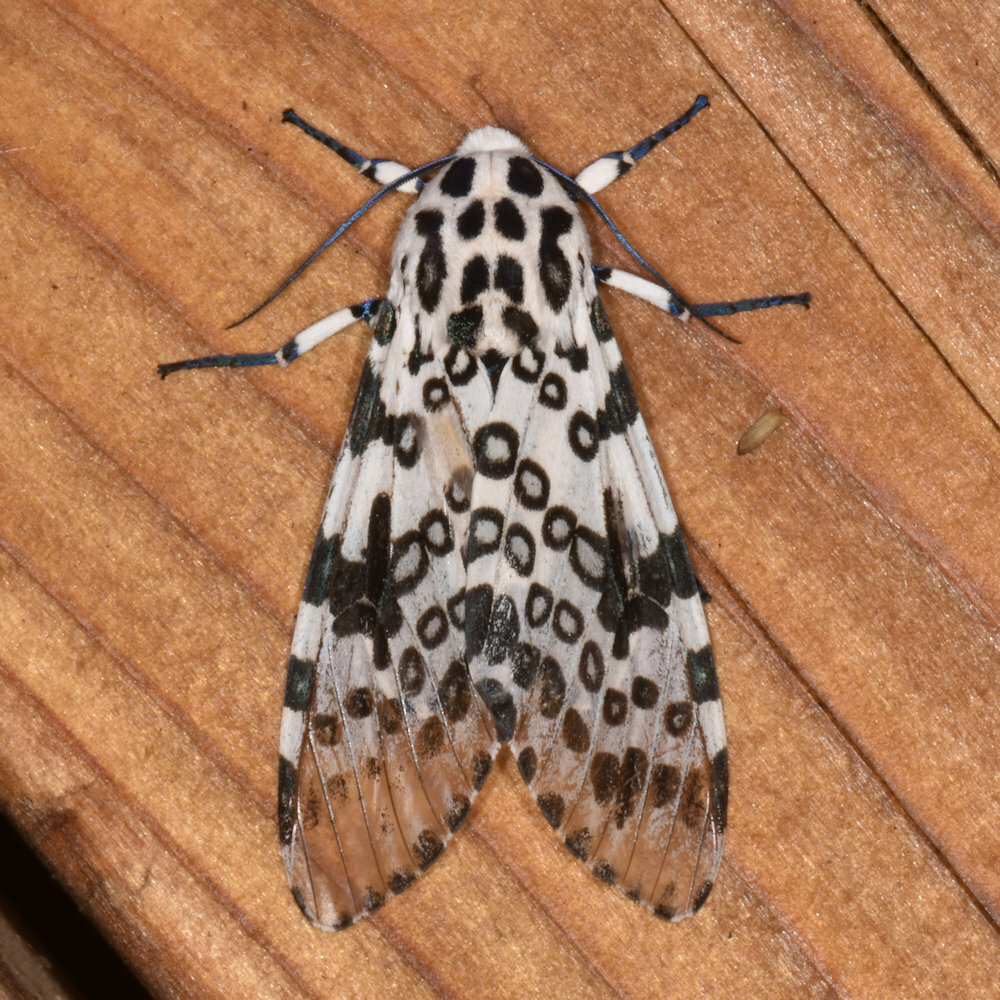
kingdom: Animalia
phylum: Arthropoda
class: Insecta
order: Lepidoptera
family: Erebidae
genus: Hypercompe
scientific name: Hypercompe scribonia
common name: Giant leopard moth
